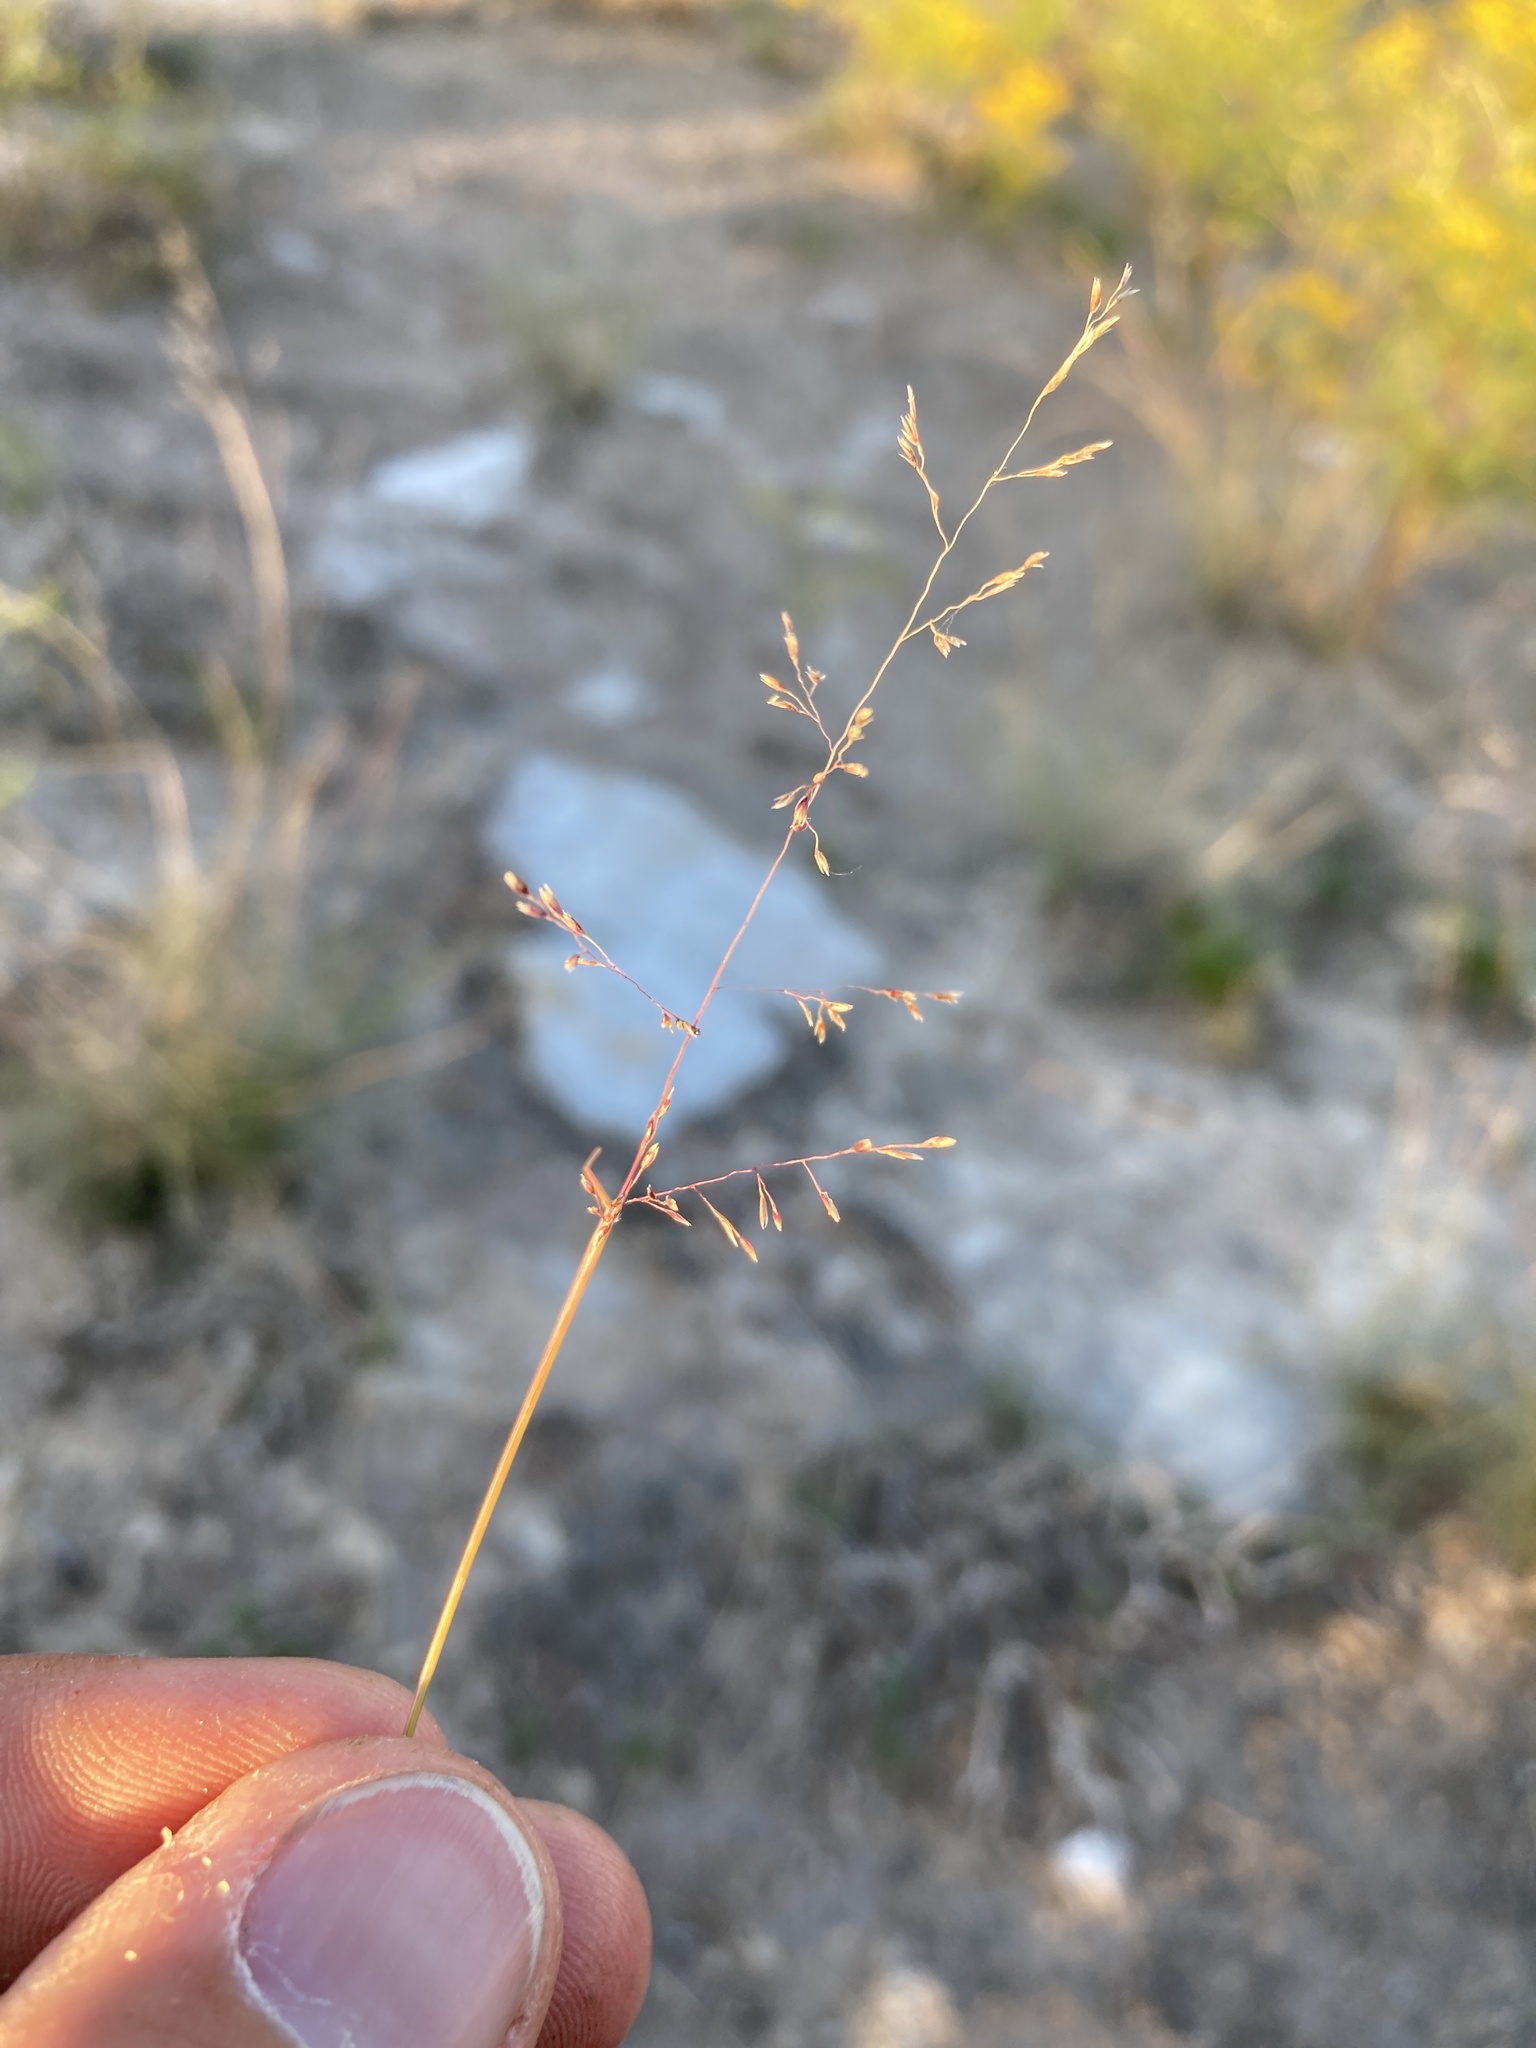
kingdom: Plantae
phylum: Tracheophyta
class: Liliopsida
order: Poales
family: Poaceae
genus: Sporobolus
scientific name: Sporobolus nealleyi
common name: Gyp grass
